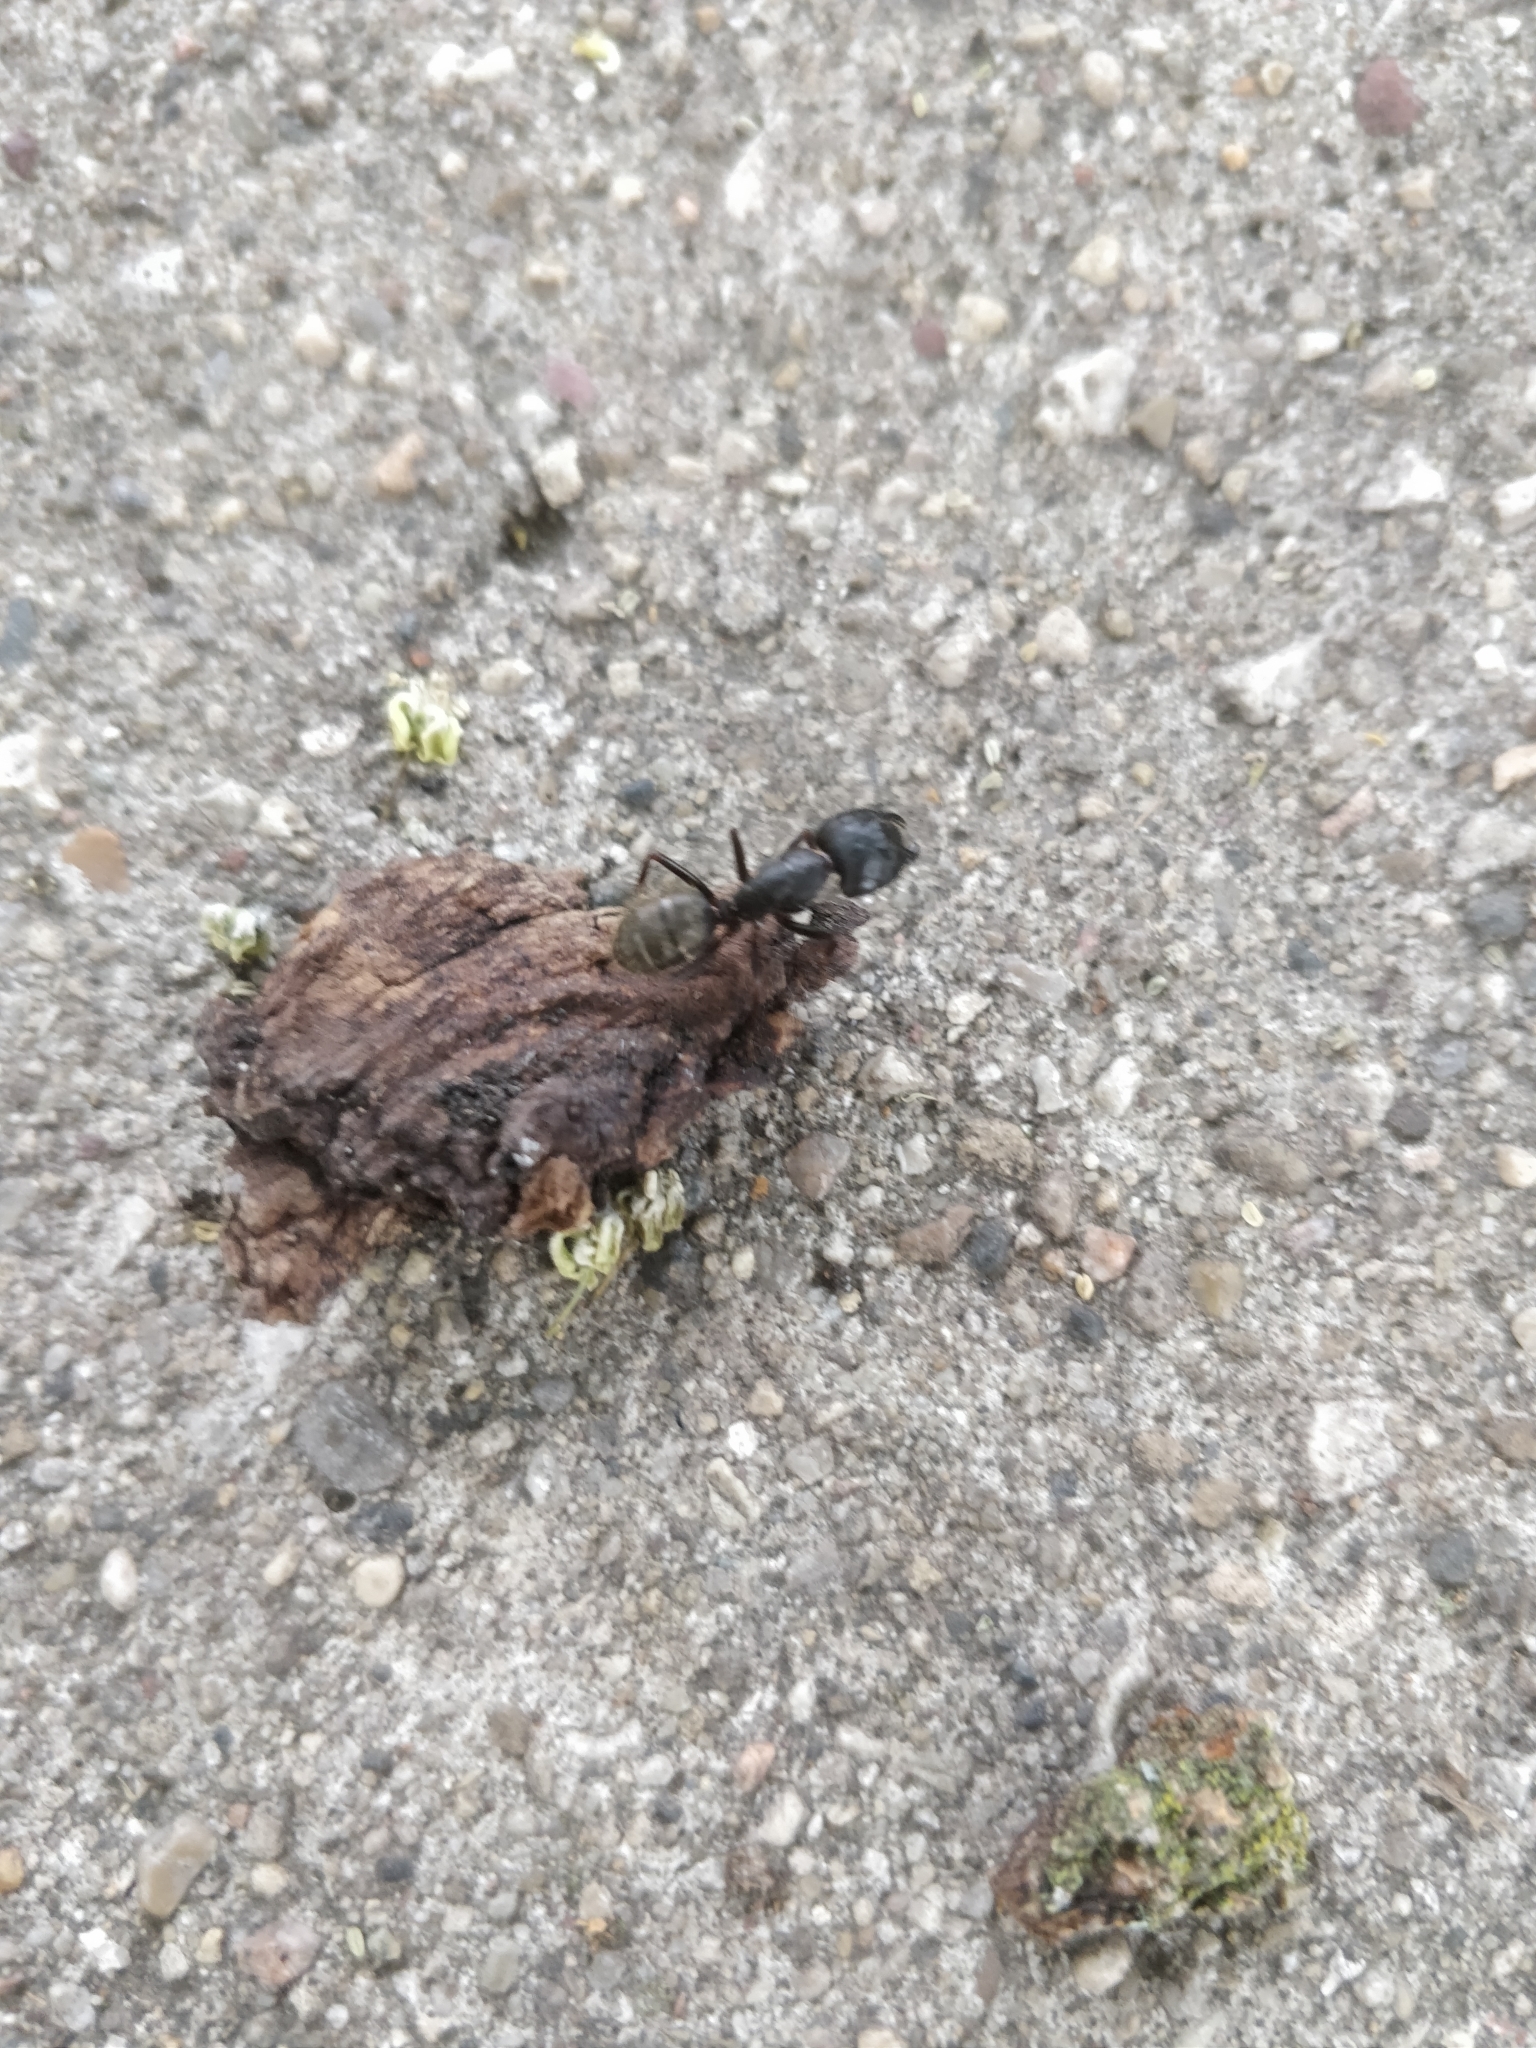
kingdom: Animalia
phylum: Arthropoda
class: Insecta
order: Hymenoptera
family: Formicidae
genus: Camponotus
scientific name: Camponotus pennsylvanicus
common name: Black carpenter ant
